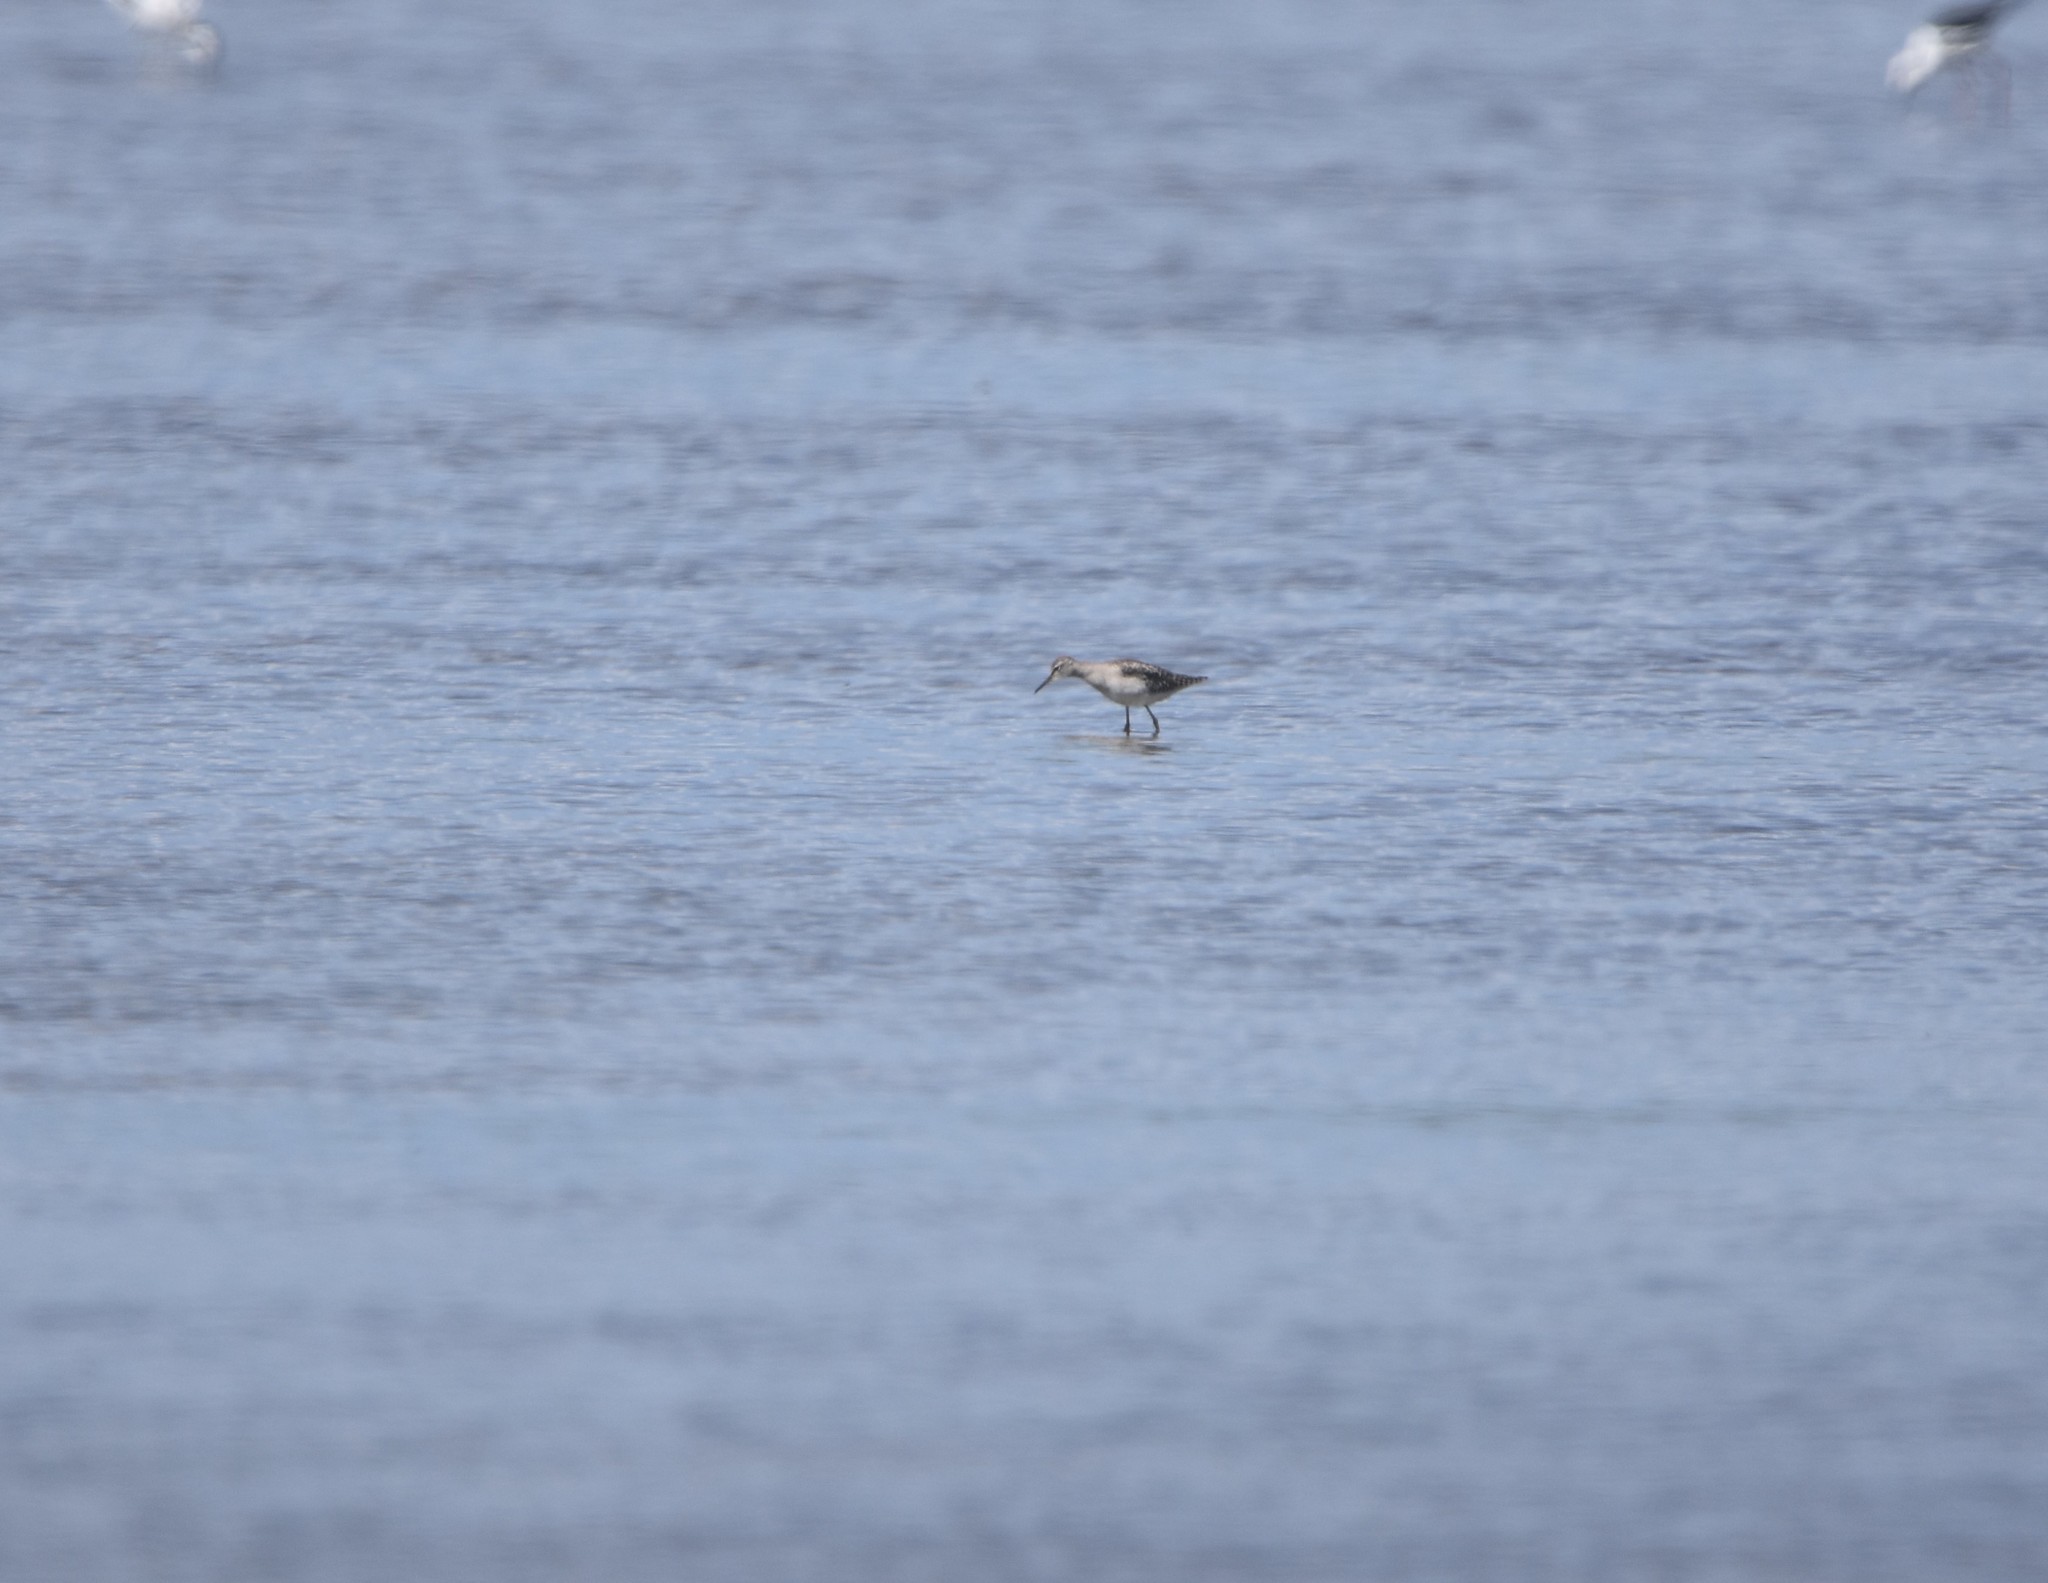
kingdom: Animalia
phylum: Chordata
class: Aves
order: Charadriiformes
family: Scolopacidae
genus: Tringa
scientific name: Tringa glareola
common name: Wood sandpiper
